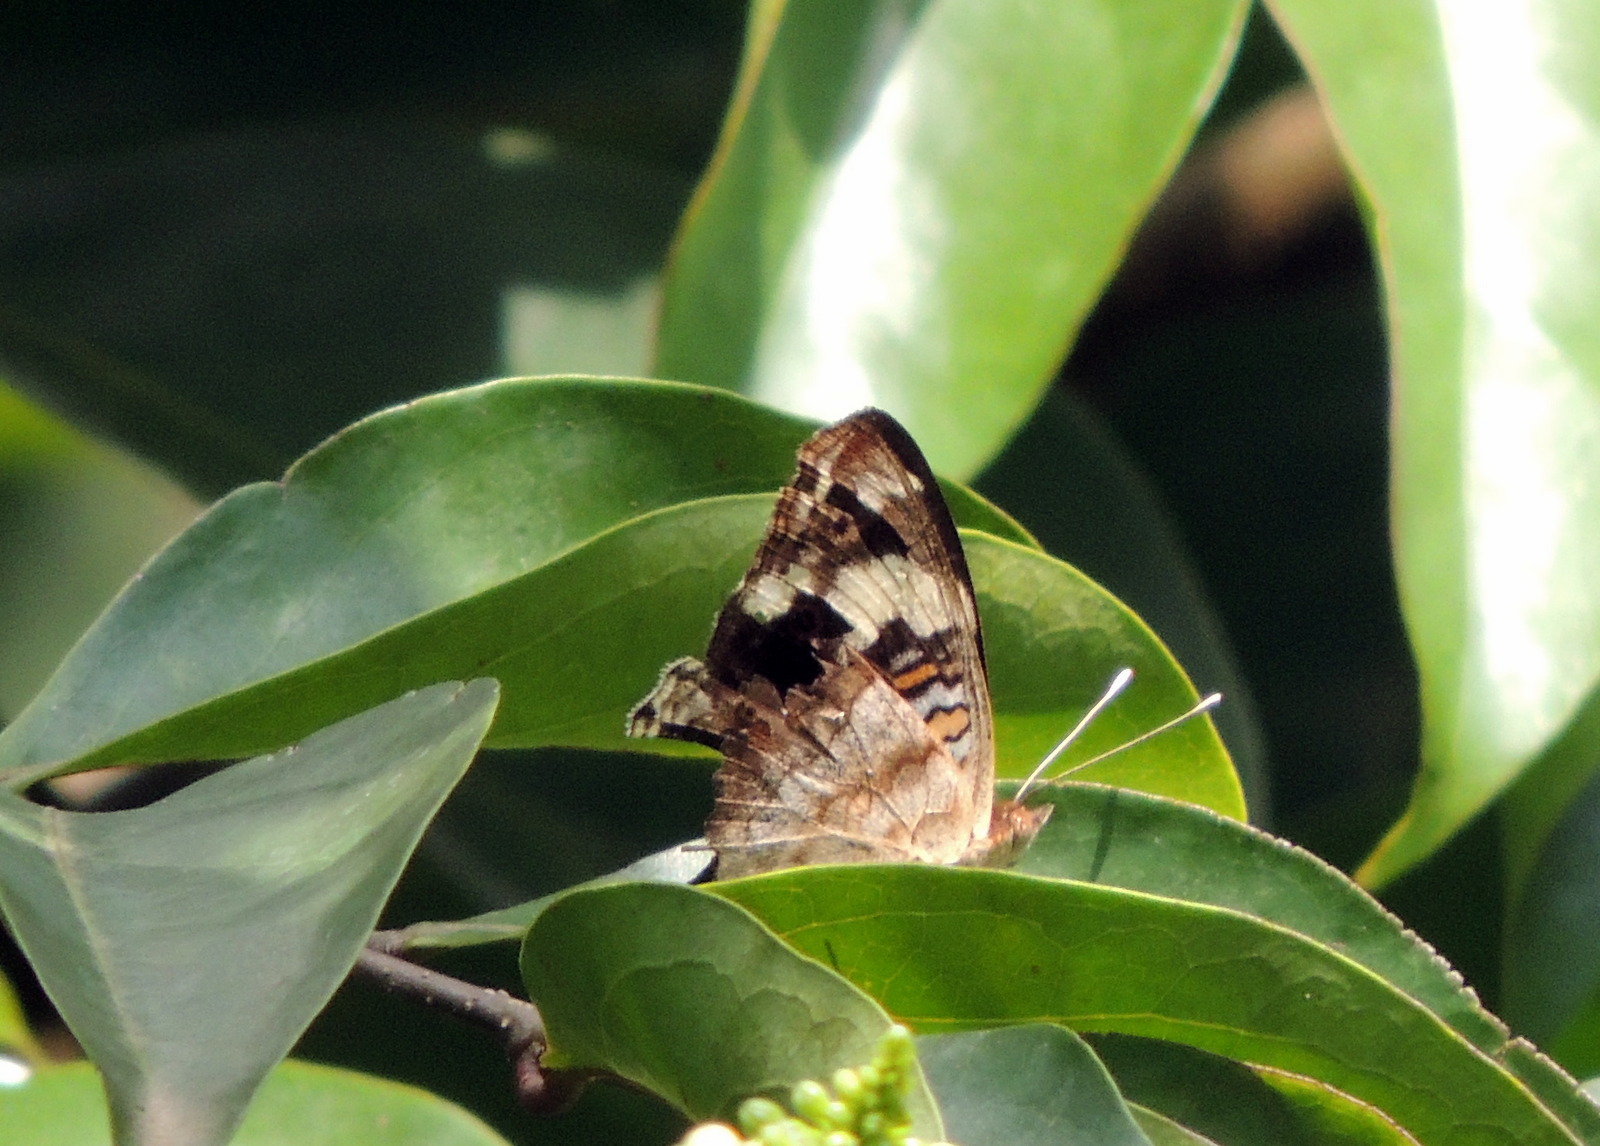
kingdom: Animalia
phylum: Arthropoda
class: Insecta
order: Lepidoptera
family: Nymphalidae
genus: Junonia
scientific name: Junonia oenone
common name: Dark blue pansy
